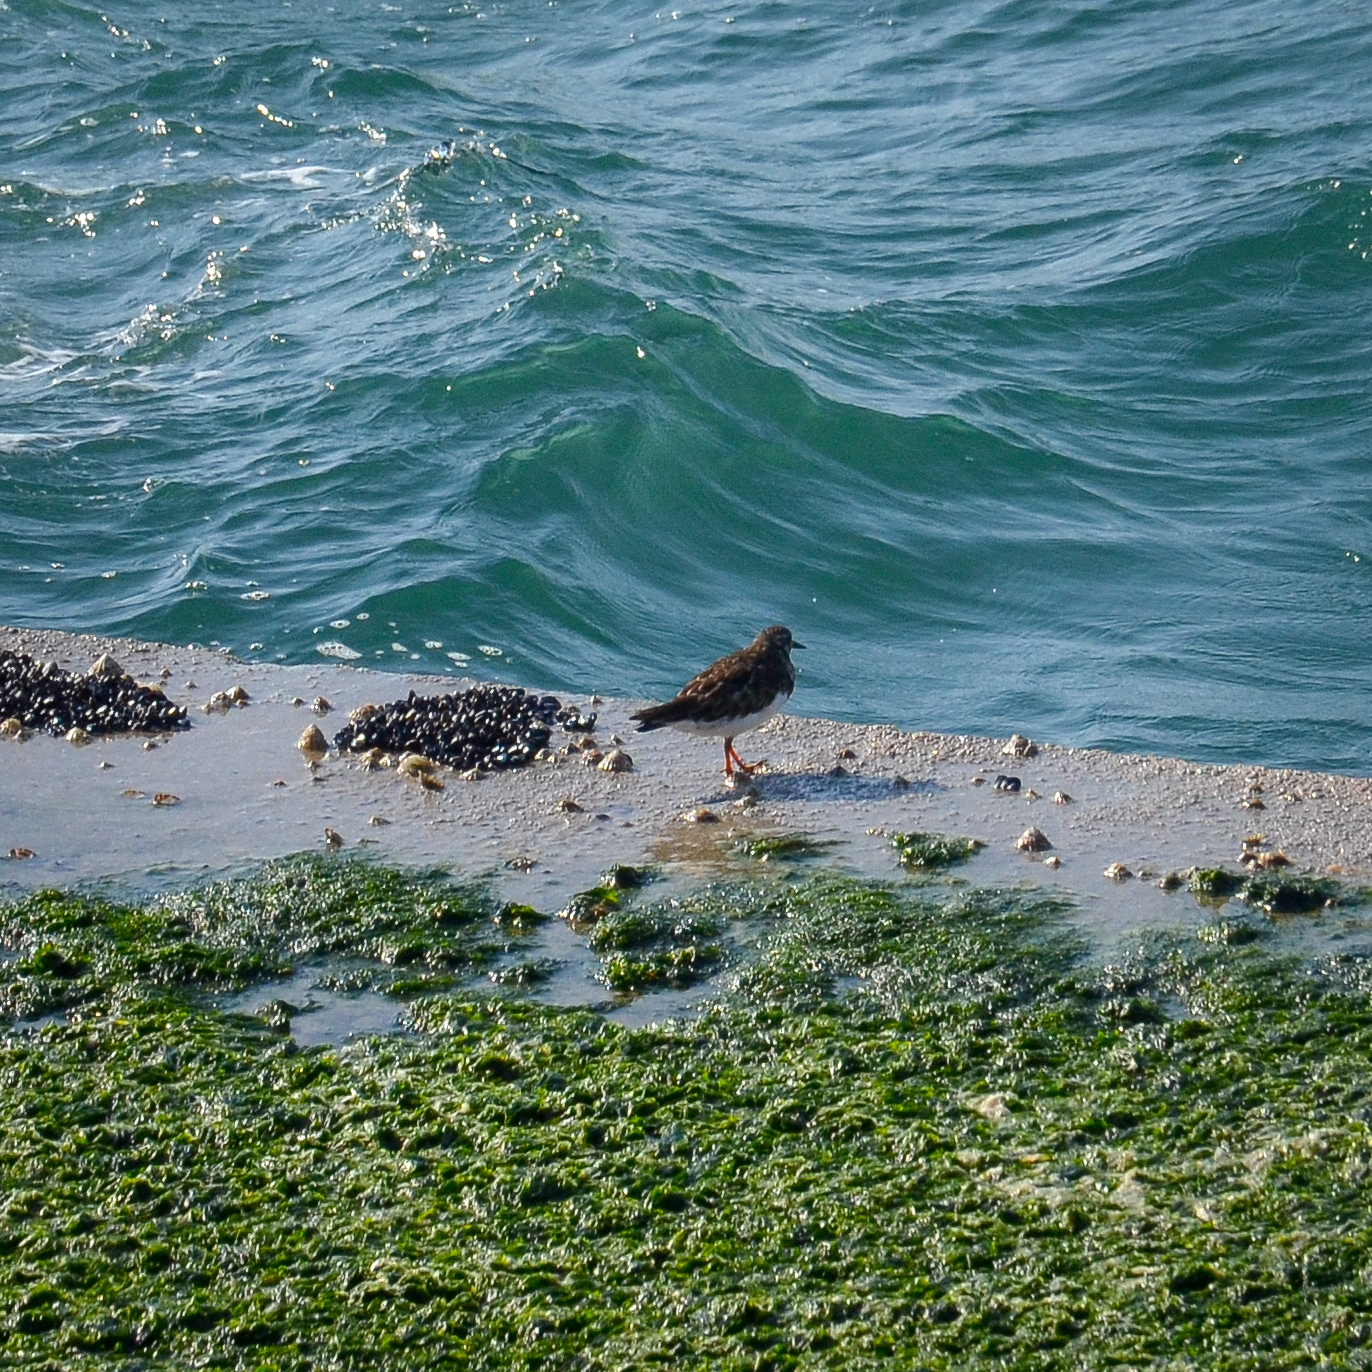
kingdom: Animalia
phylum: Chordata
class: Aves
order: Charadriiformes
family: Scolopacidae
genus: Arenaria
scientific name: Arenaria interpres
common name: Ruddy turnstone
